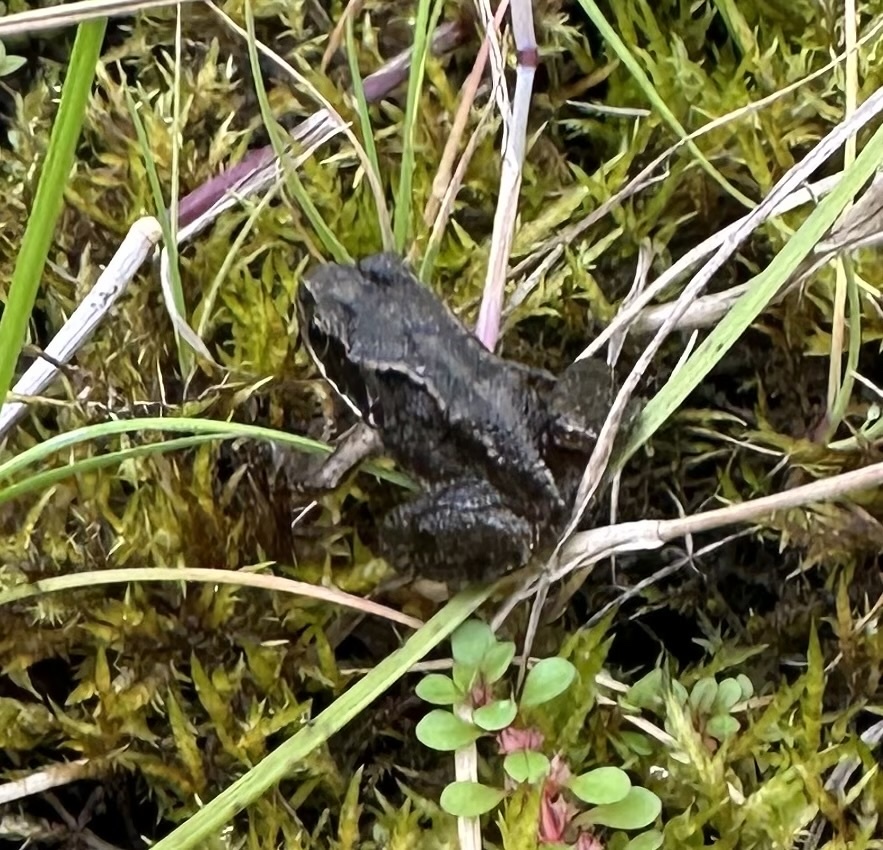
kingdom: Animalia
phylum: Chordata
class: Amphibia
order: Anura
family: Ranidae
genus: Rana
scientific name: Rana temporaria
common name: Common frog
